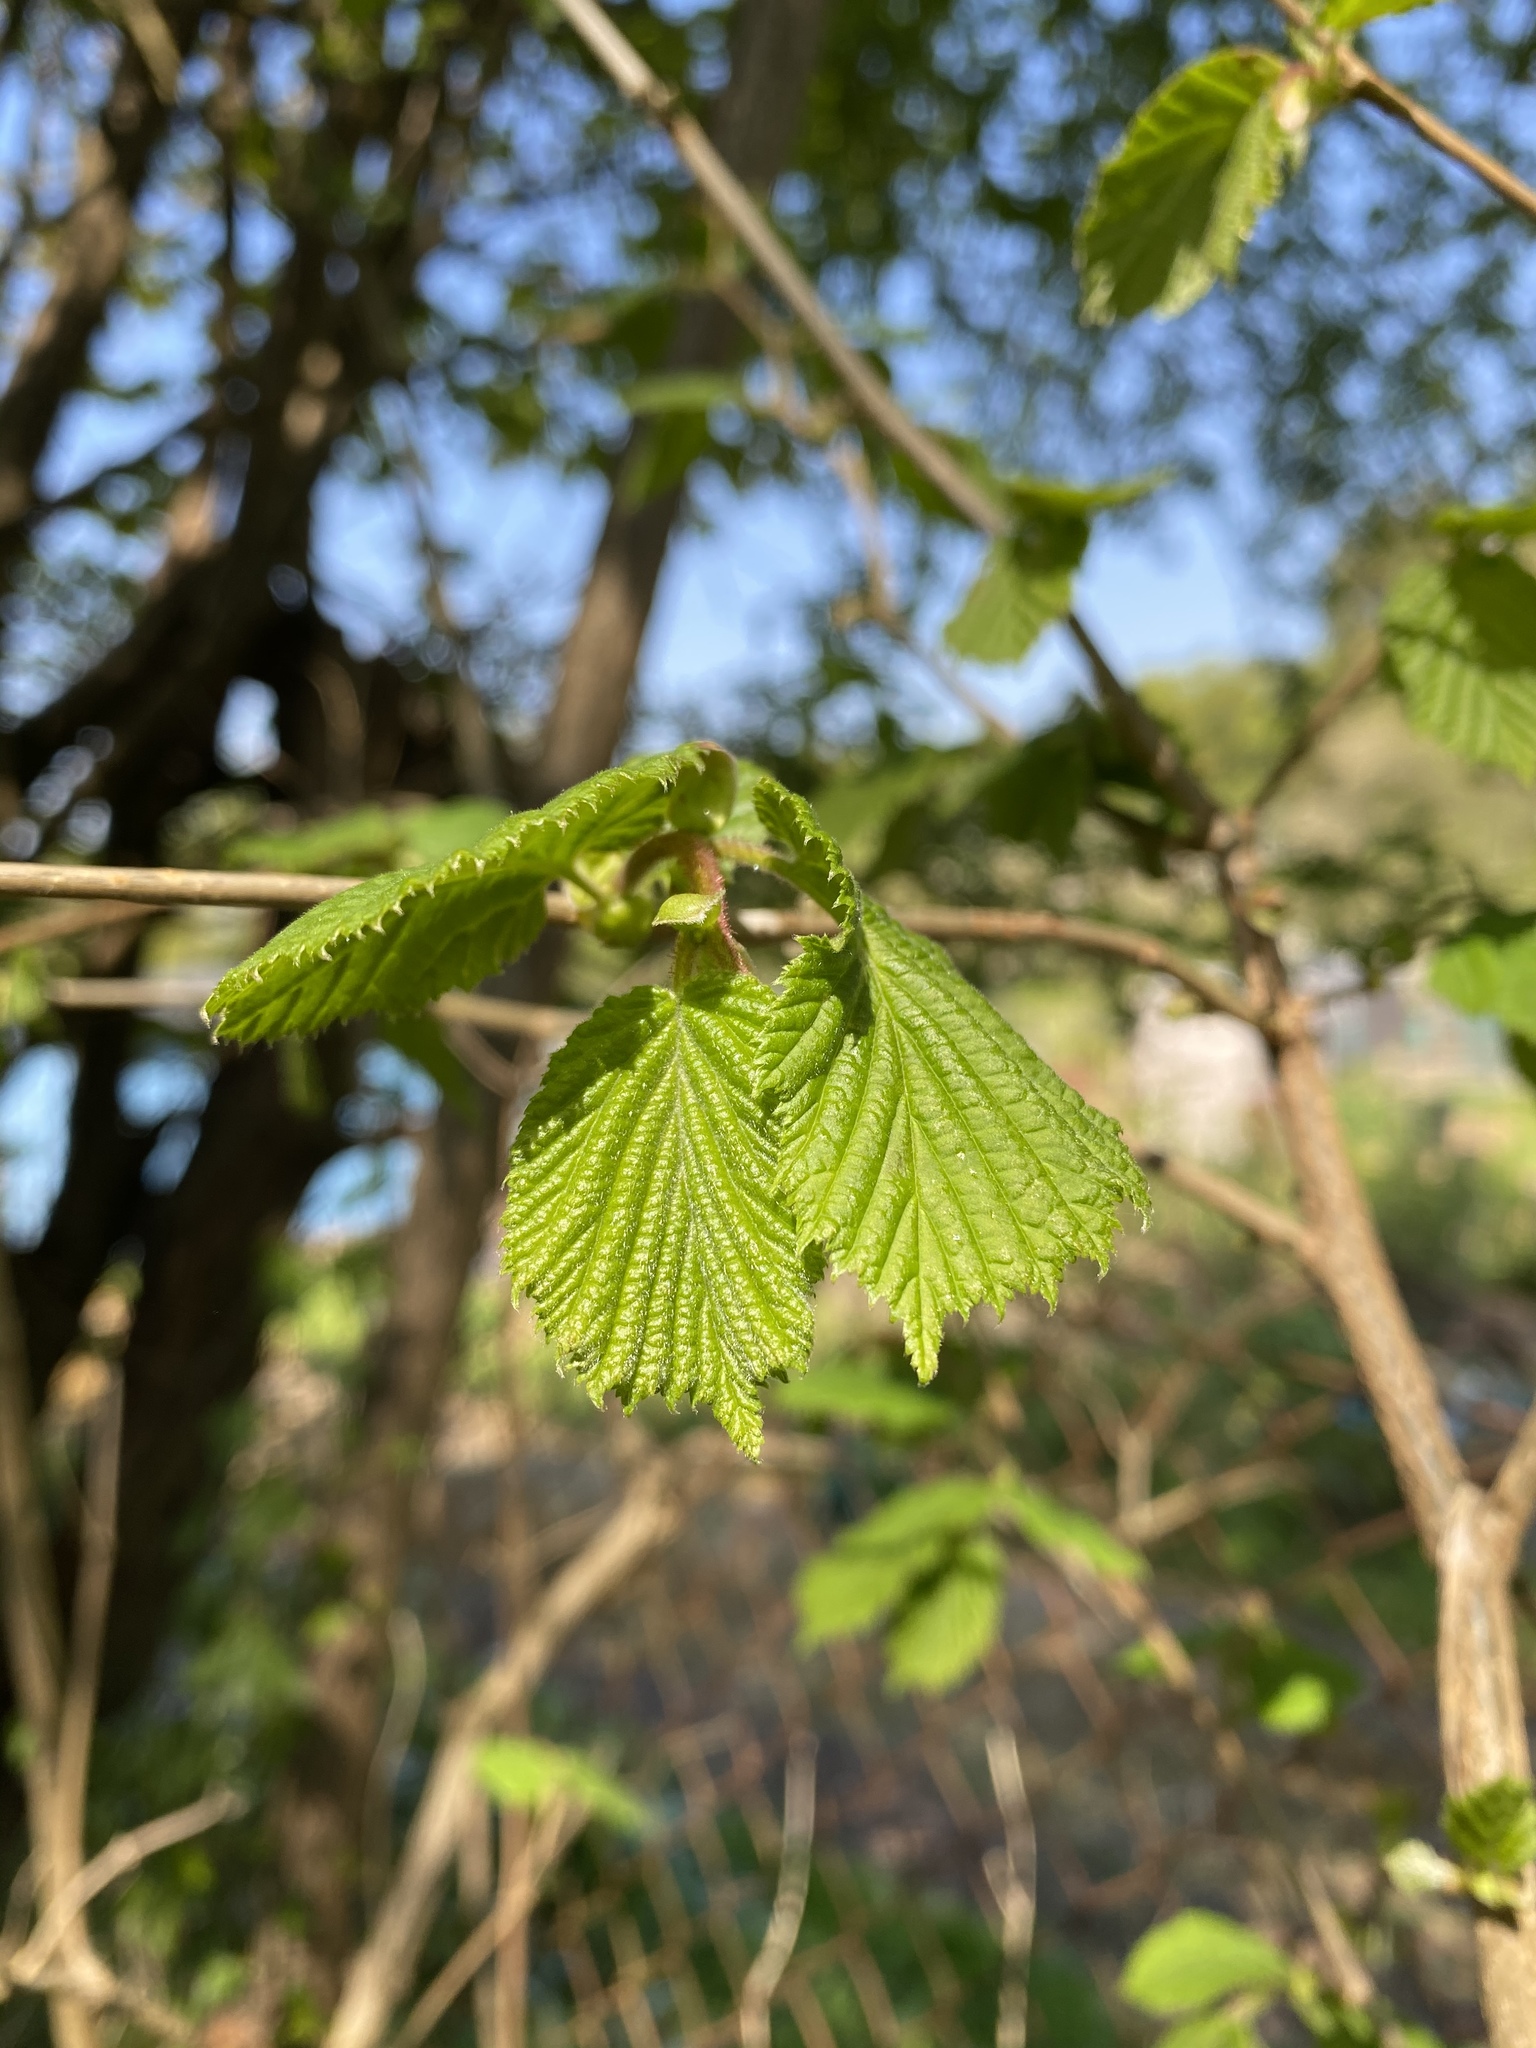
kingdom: Plantae
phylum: Tracheophyta
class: Magnoliopsida
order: Fagales
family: Betulaceae
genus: Corylus
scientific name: Corylus avellana
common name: European hazel
